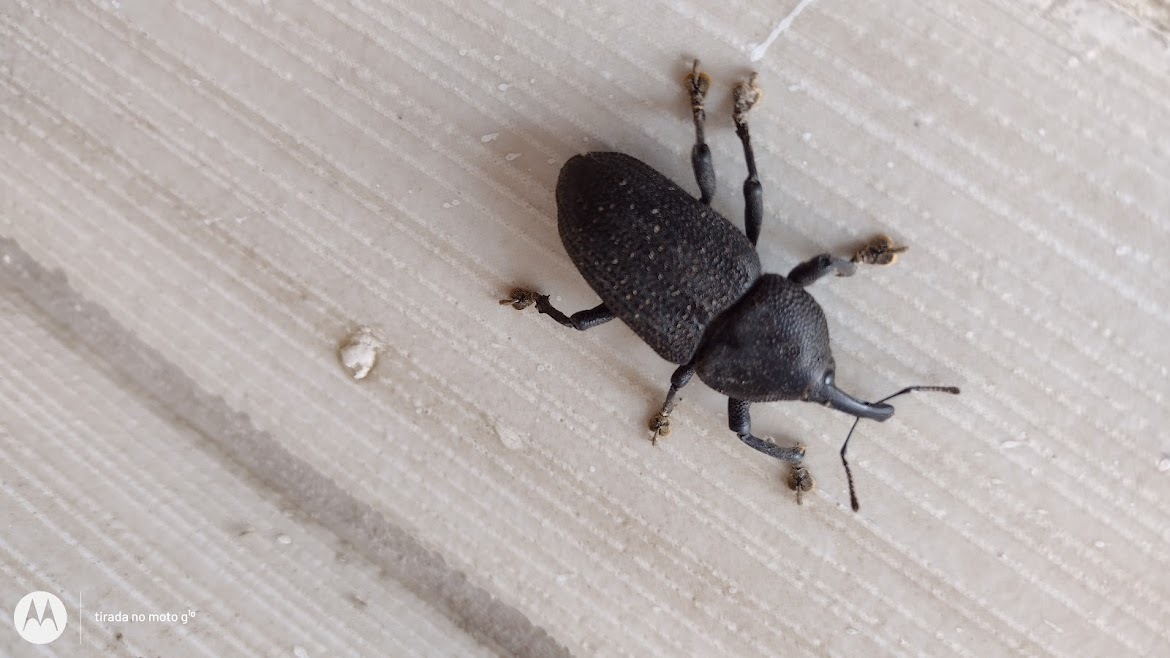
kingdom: Animalia
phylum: Arthropoda
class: Insecta
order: Coleoptera
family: Curculionidae
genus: Homalinotus
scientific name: Homalinotus coriaceus
